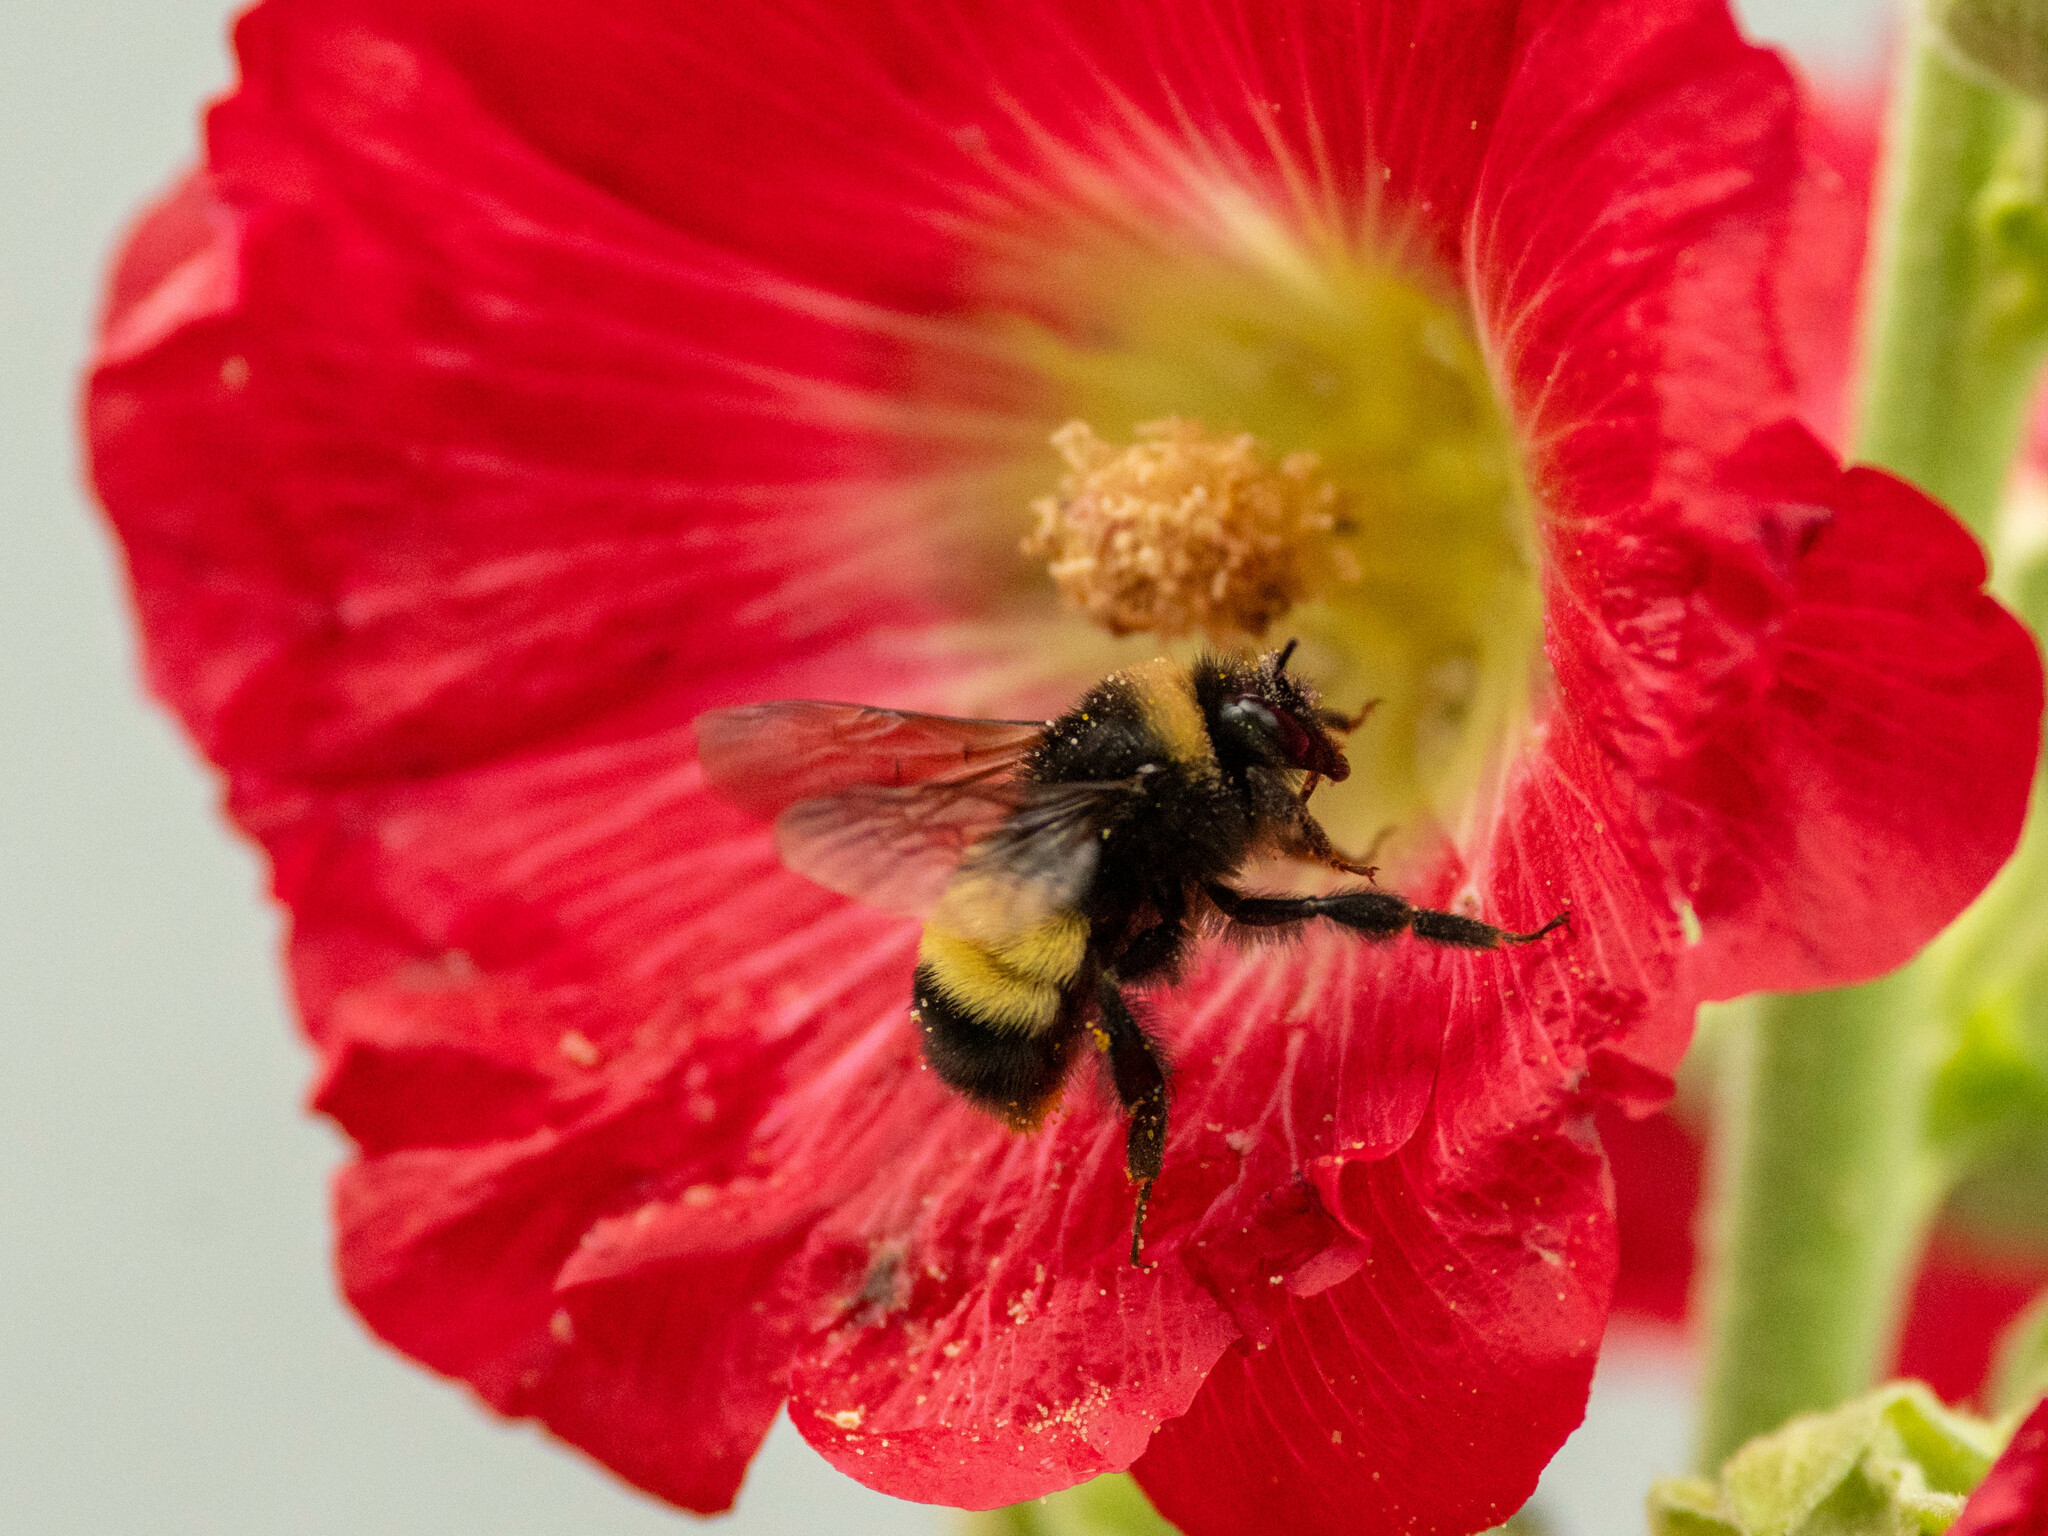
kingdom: Animalia
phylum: Arthropoda
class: Insecta
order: Hymenoptera
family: Apidae
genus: Bombus
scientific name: Bombus terricola
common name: Yellow-banded bumble bee
